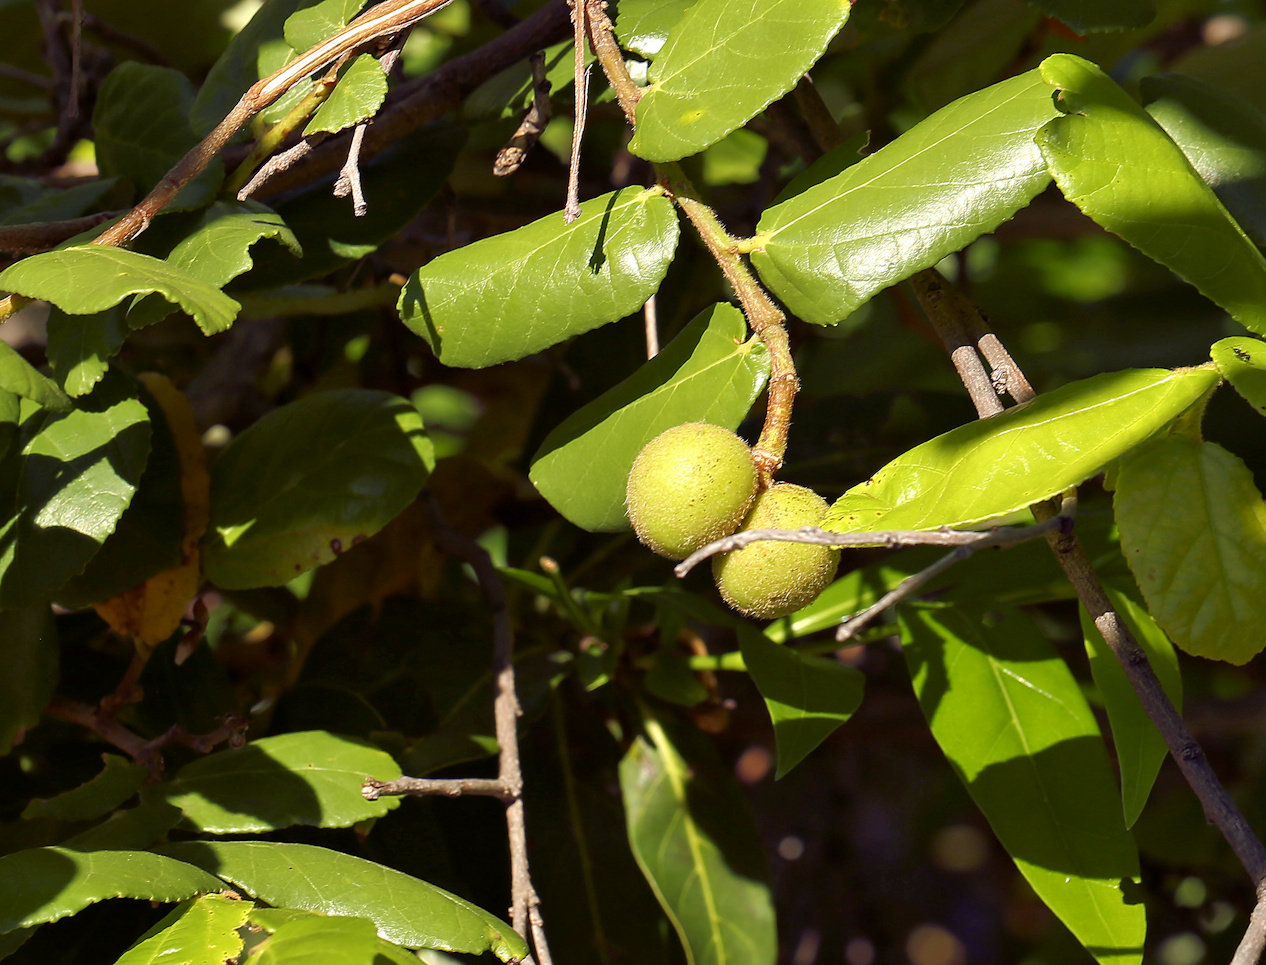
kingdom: Plantae
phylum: Tracheophyta
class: Magnoliopsida
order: Malvales
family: Malvaceae
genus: Grewia
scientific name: Grewia hexamita
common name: Giant raisin
